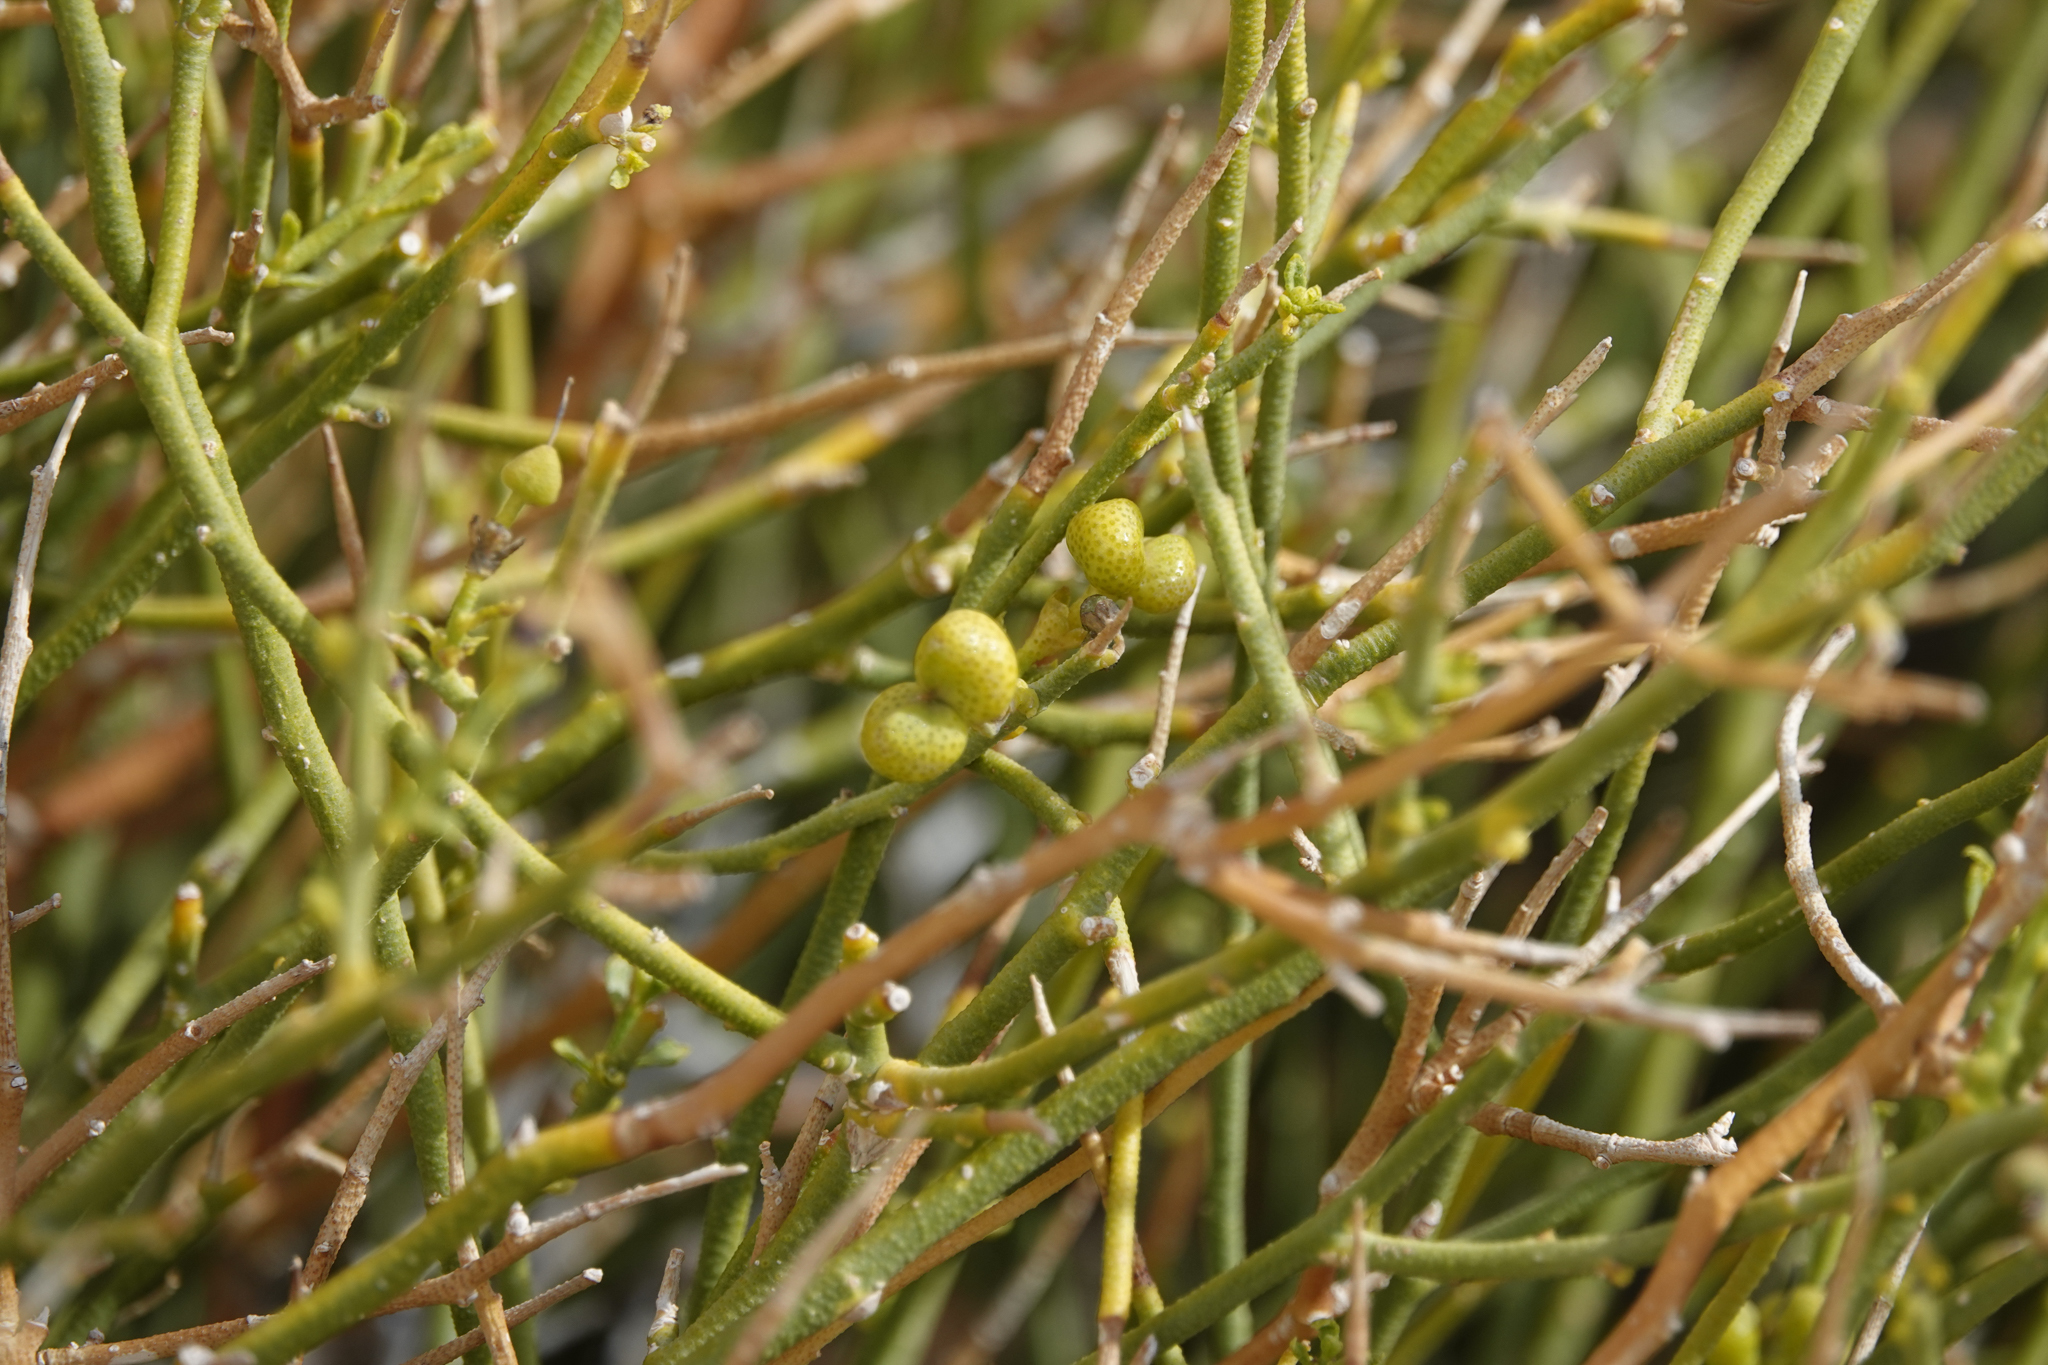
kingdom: Plantae
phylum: Tracheophyta
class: Magnoliopsida
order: Sapindales
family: Rutaceae
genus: Thamnosma
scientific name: Thamnosma montana
